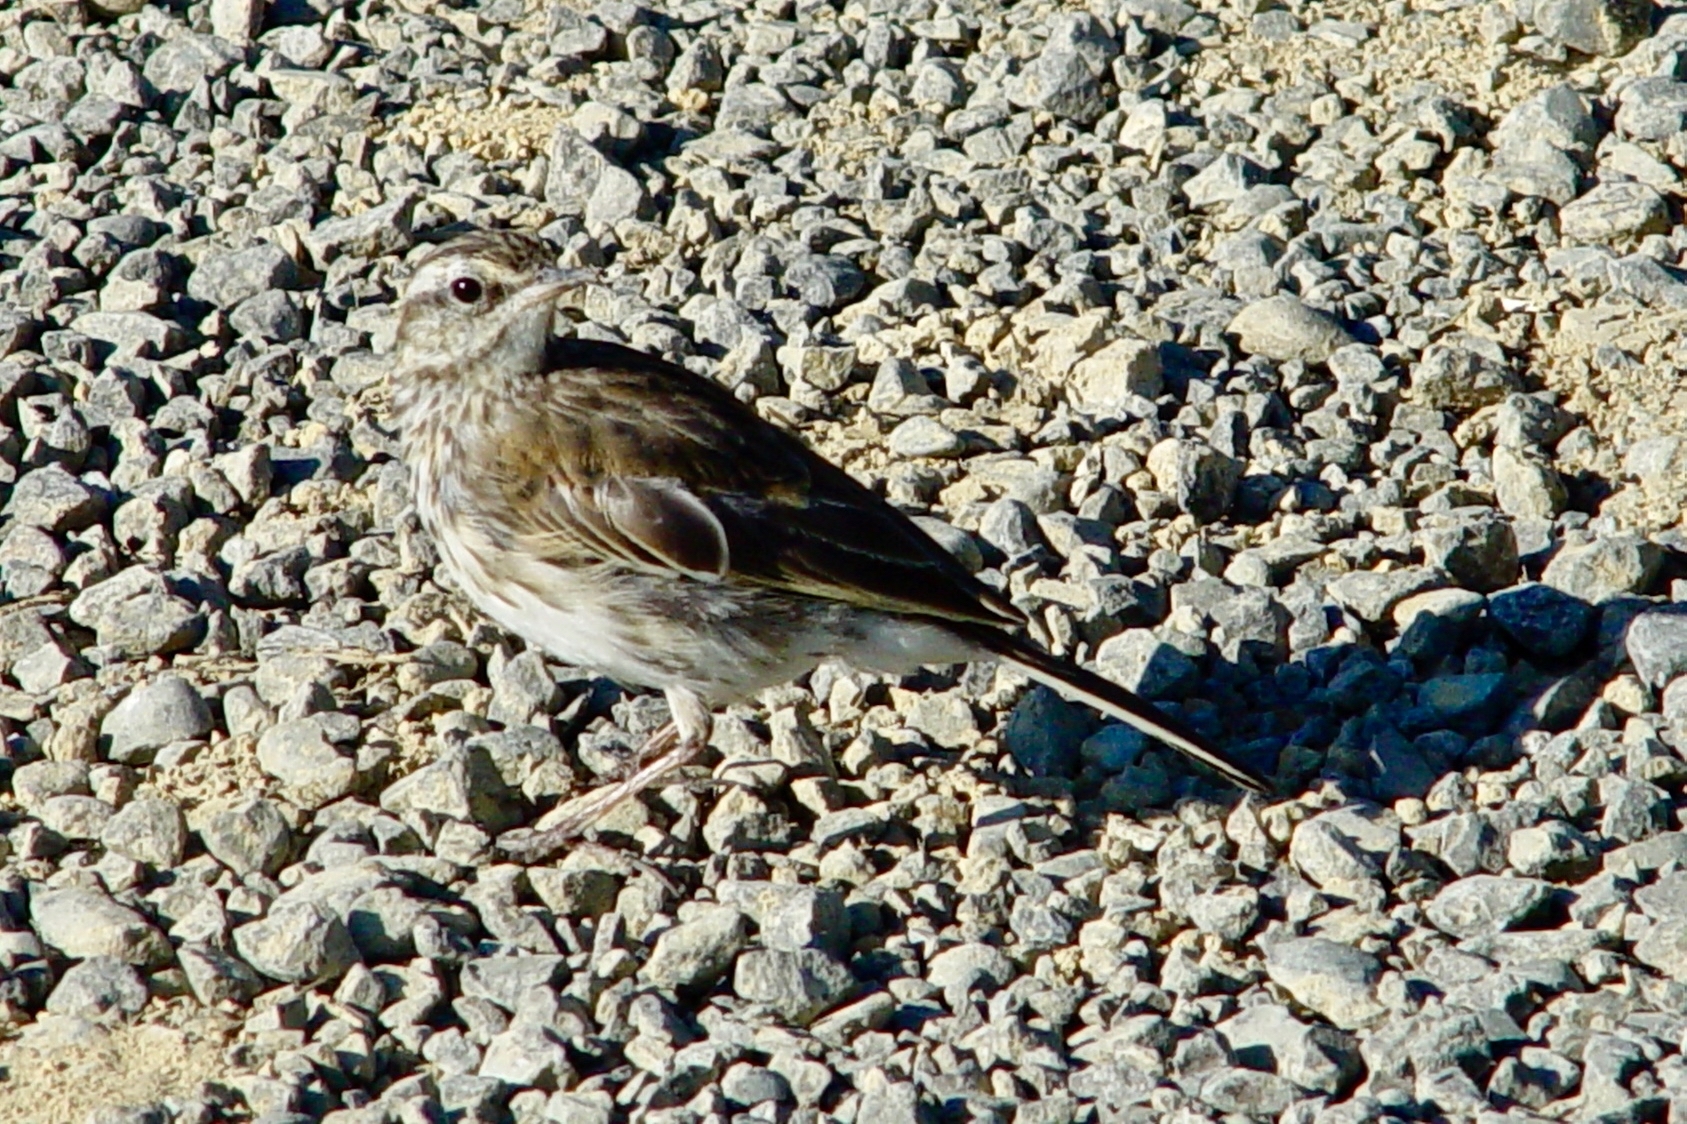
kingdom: Animalia
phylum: Chordata
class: Aves
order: Passeriformes
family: Motacillidae
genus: Anthus
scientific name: Anthus novaeseelandiae
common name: New zealand pipit
